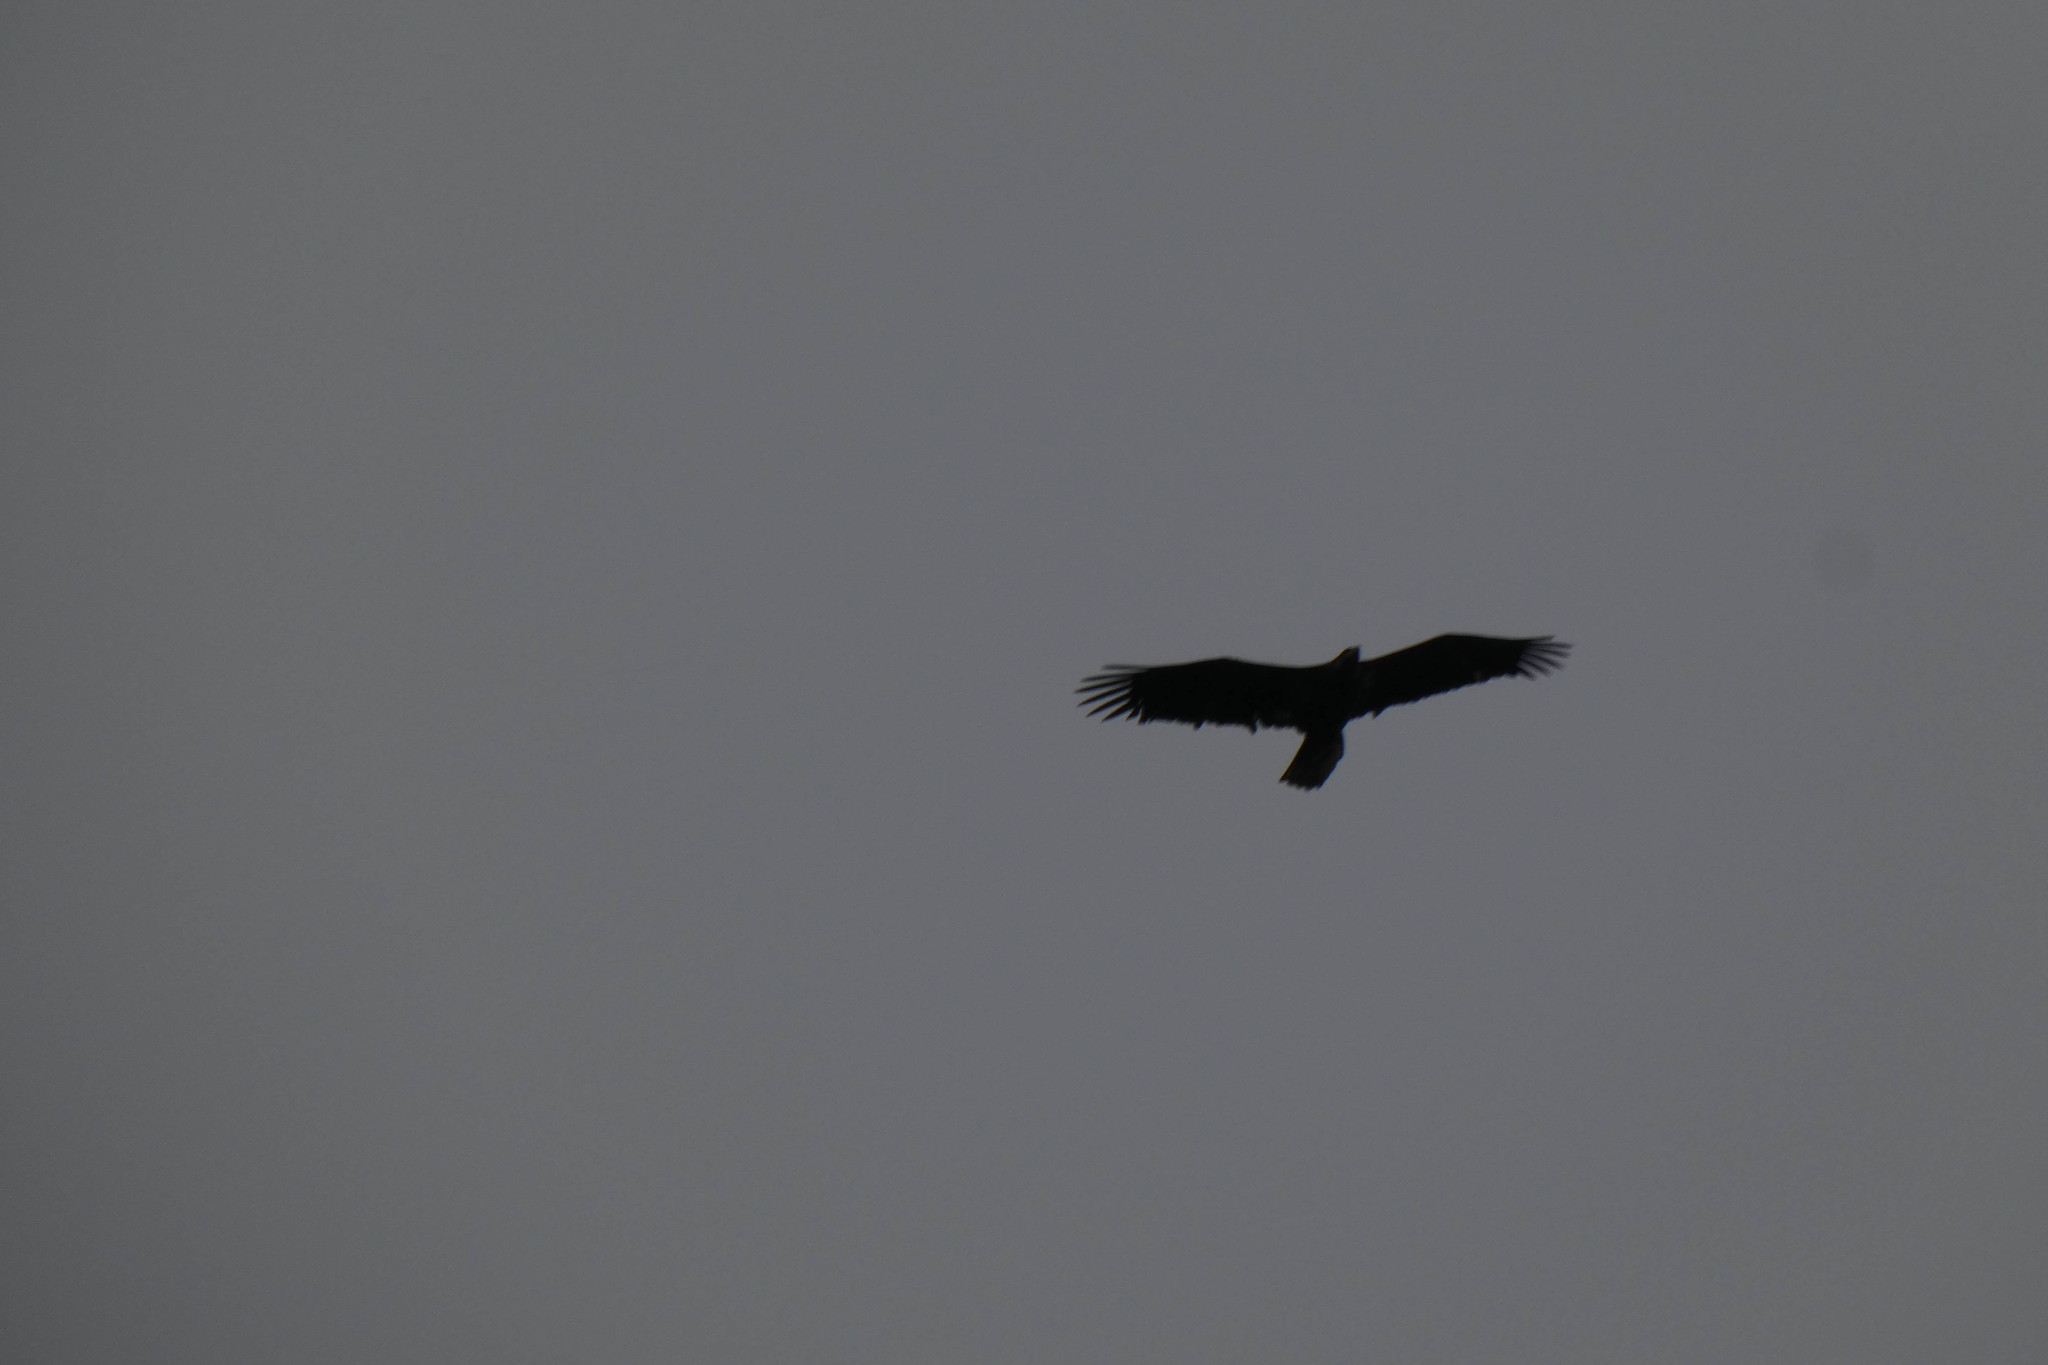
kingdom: Animalia
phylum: Chordata
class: Aves
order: Accipitriformes
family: Accipitridae
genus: Haliaeetus
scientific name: Haliaeetus leucocephalus
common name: Bald eagle
